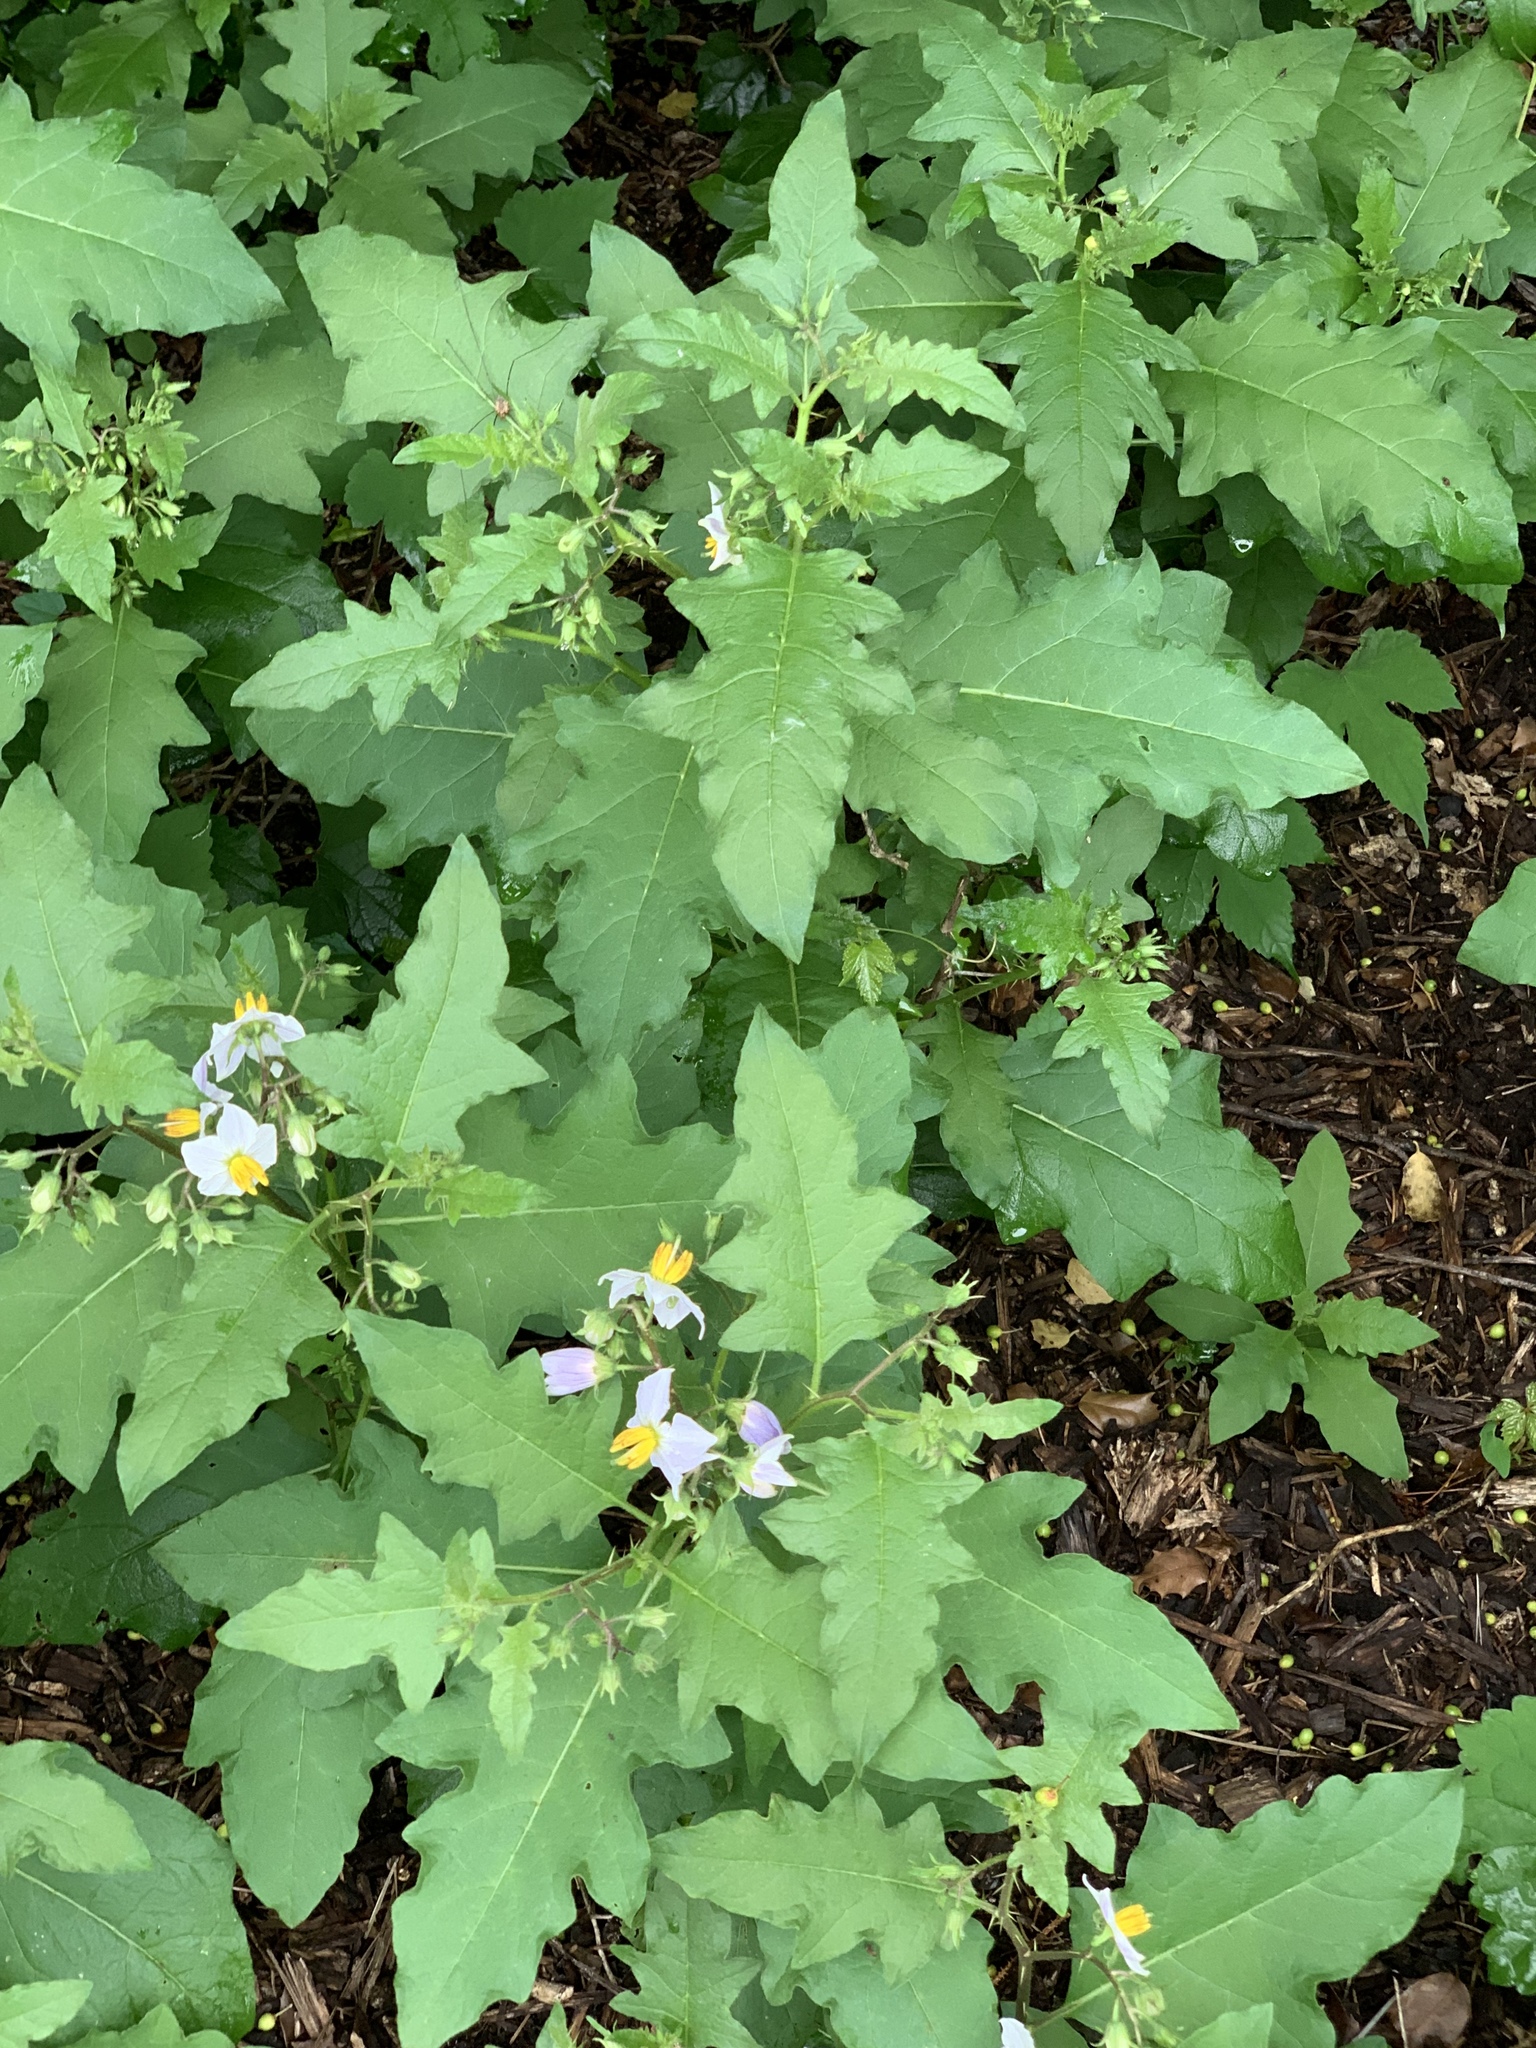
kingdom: Plantae
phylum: Tracheophyta
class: Magnoliopsida
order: Solanales
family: Solanaceae
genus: Solanum
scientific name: Solanum carolinense
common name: Horse-nettle
